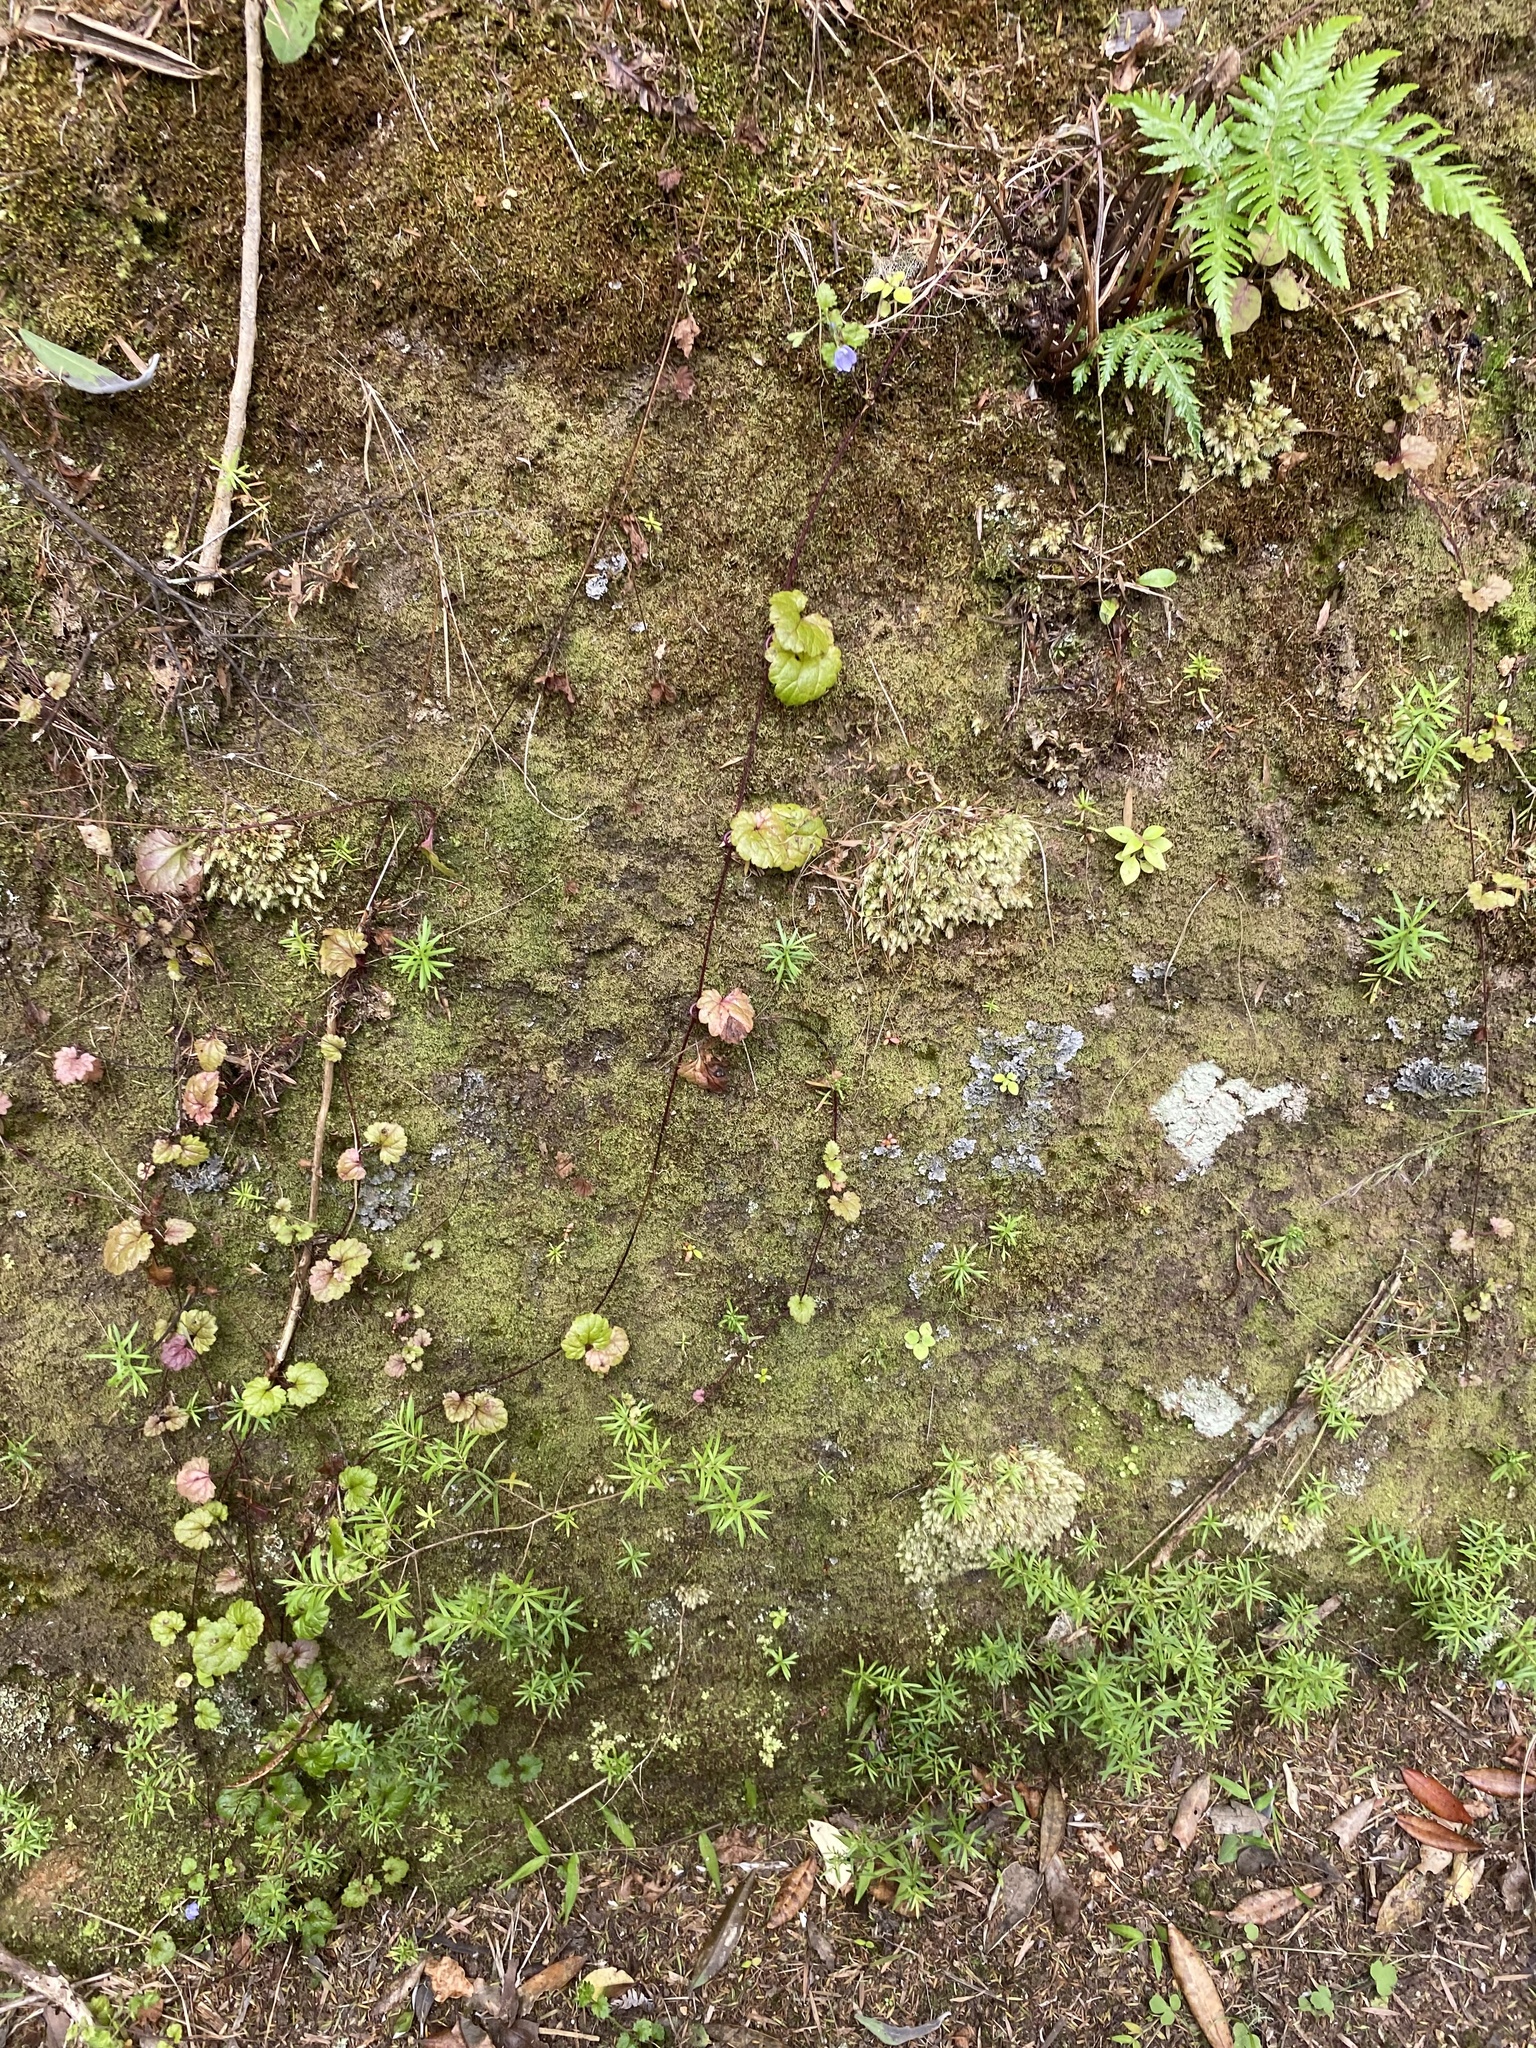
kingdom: Plantae
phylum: Tracheophyta
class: Magnoliopsida
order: Lamiales
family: Plantaginaceae
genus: Veronica
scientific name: Veronica plebeia
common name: Speedwell
